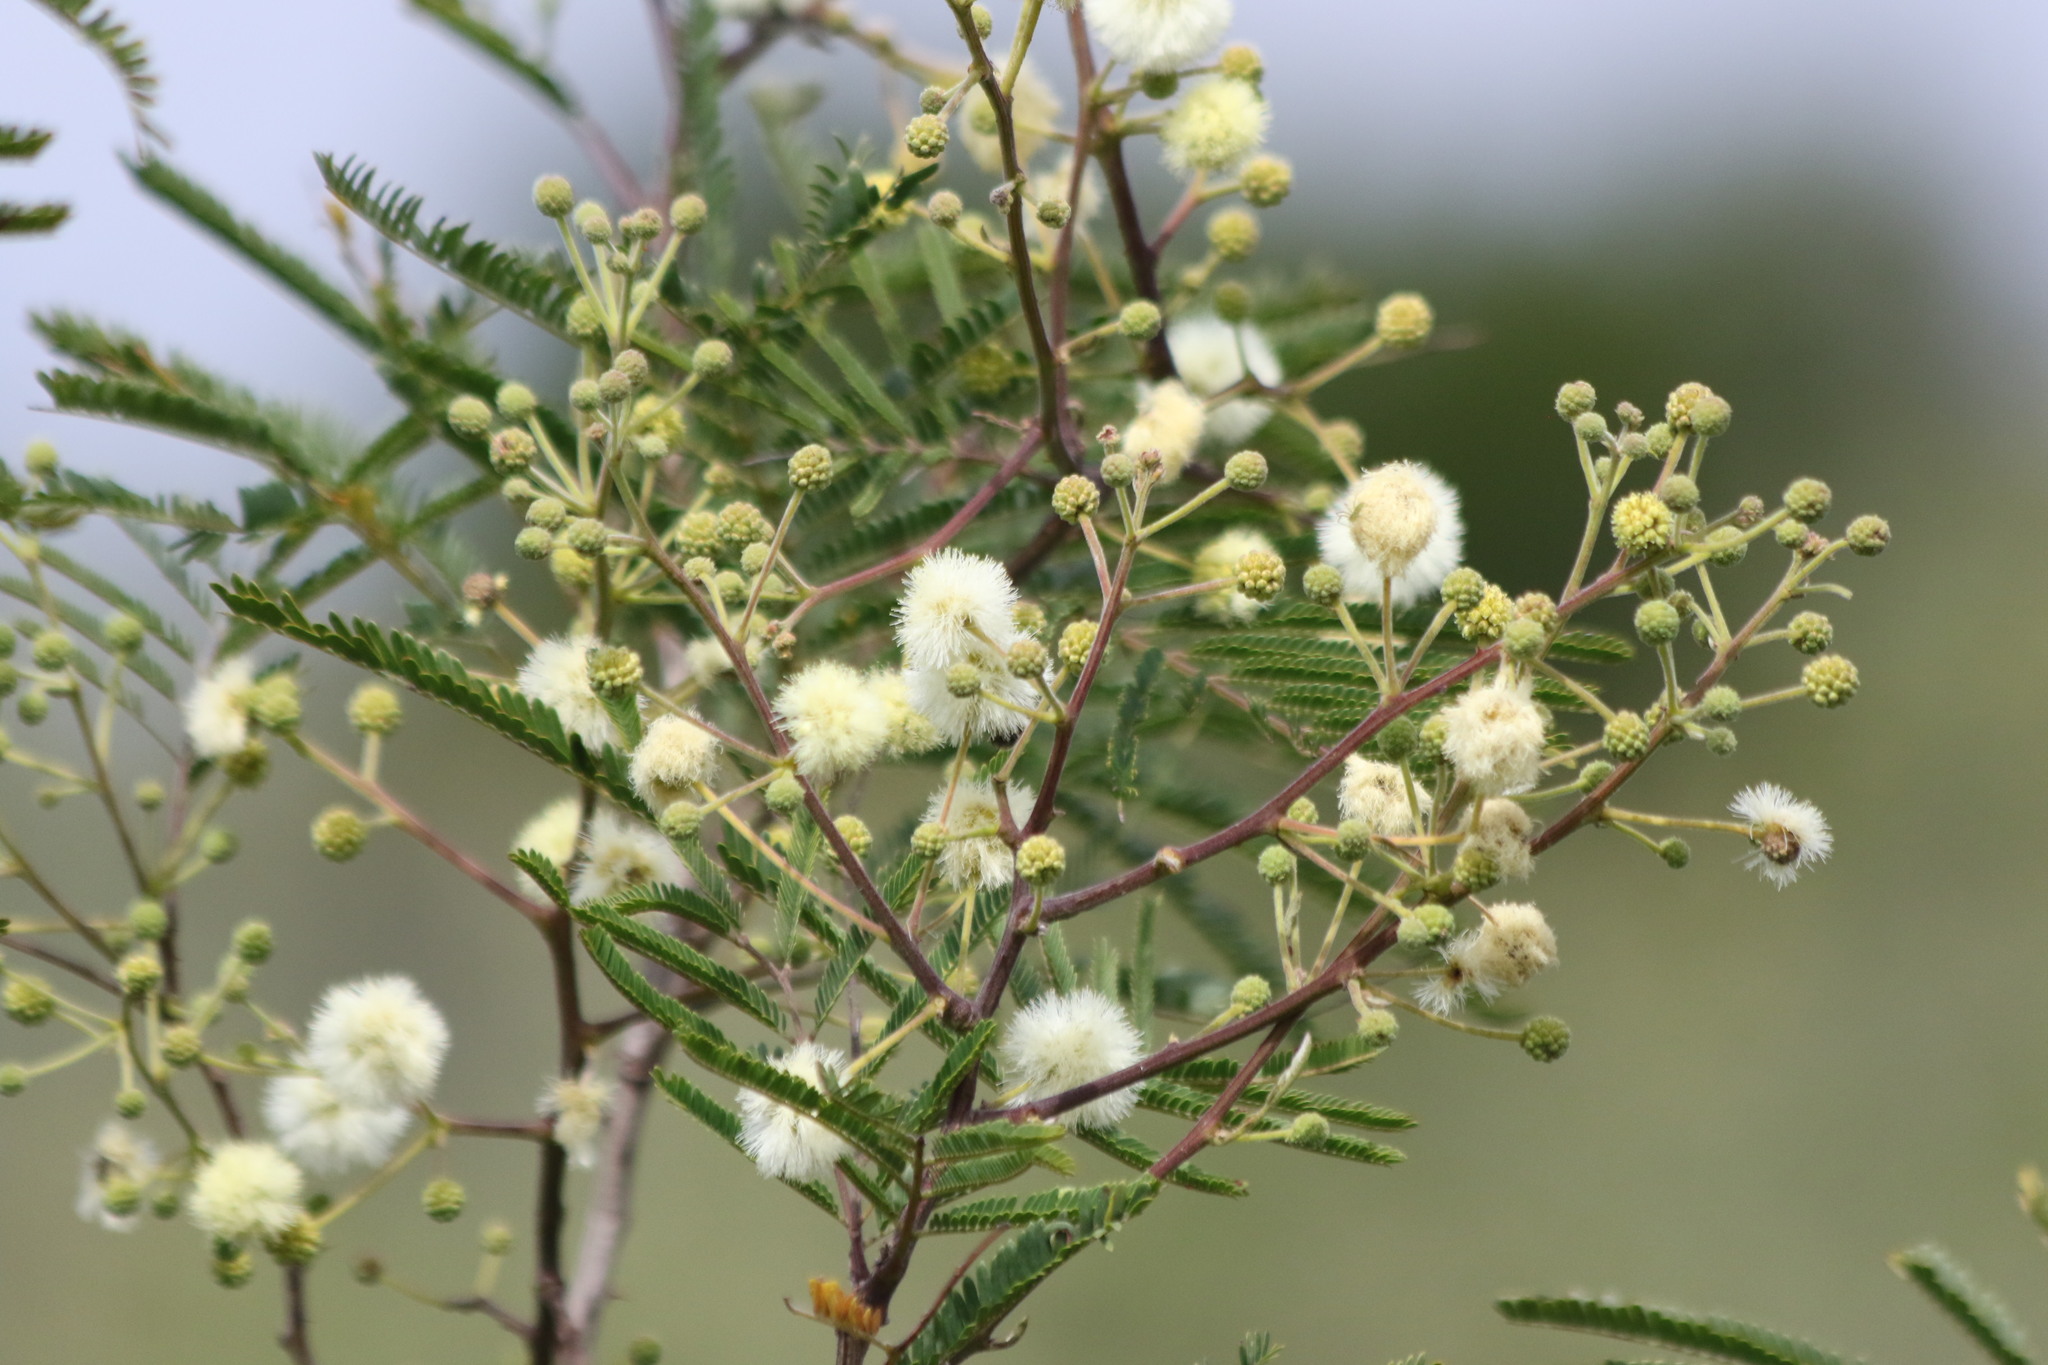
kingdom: Plantae
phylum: Tracheophyta
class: Magnoliopsida
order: Fabales
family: Fabaceae
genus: Senegalia
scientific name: Senegalia berlandieri
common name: Berlandier acacia
